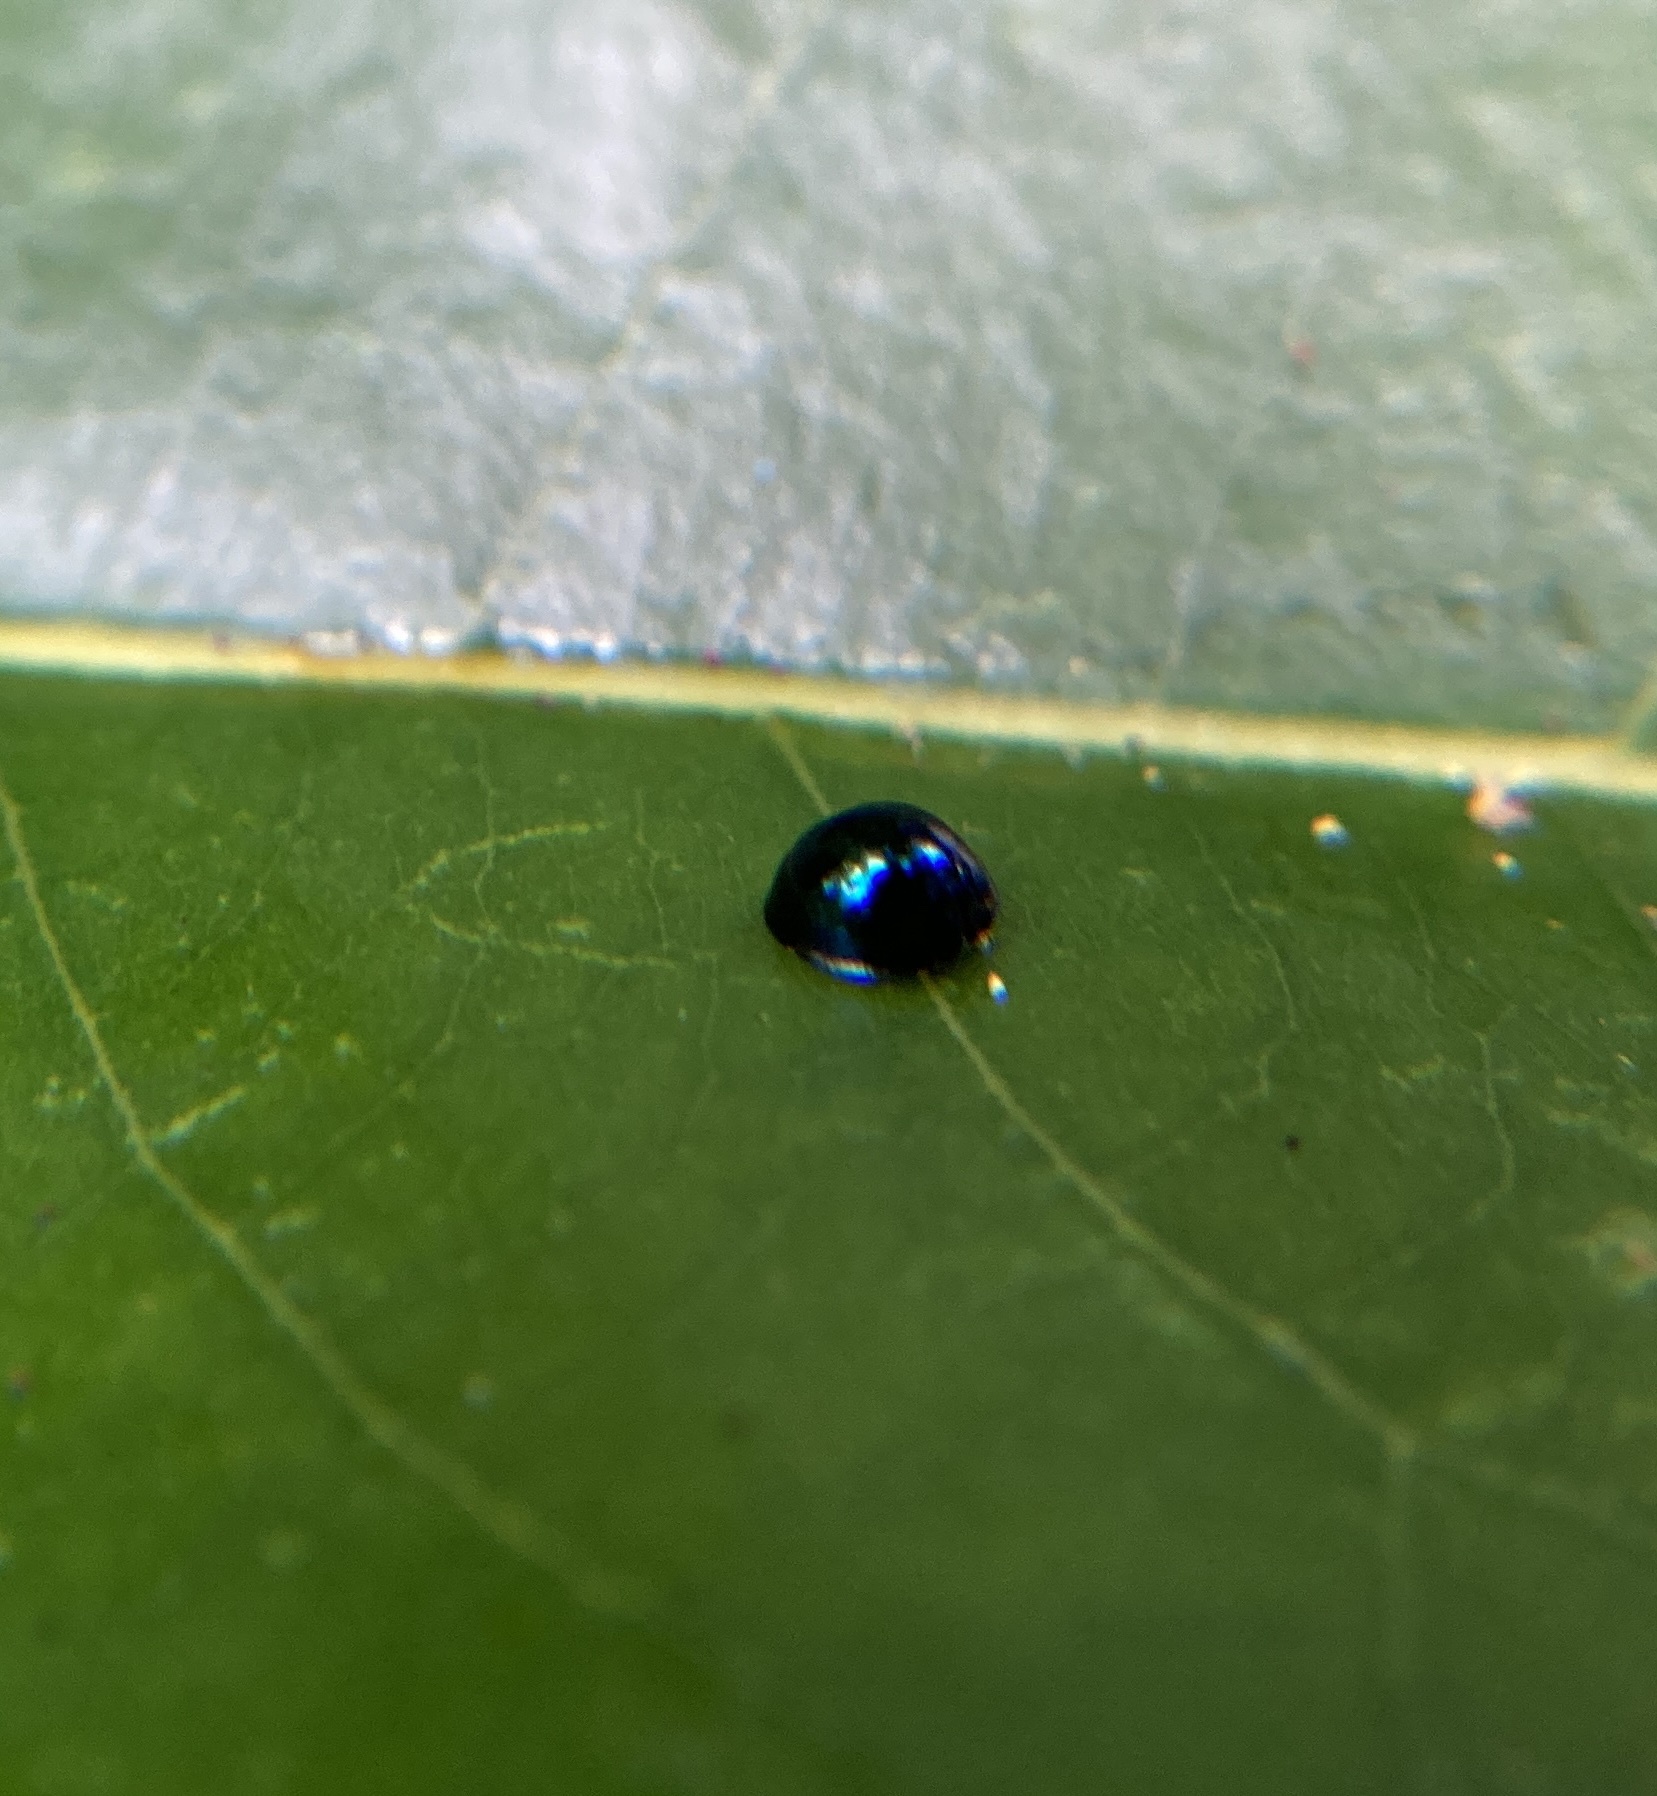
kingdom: Animalia
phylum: Arthropoda
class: Insecta
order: Coleoptera
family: Coccinellidae
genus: Halmus
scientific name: Halmus chalybeus
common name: Steel blue ladybird beetle
